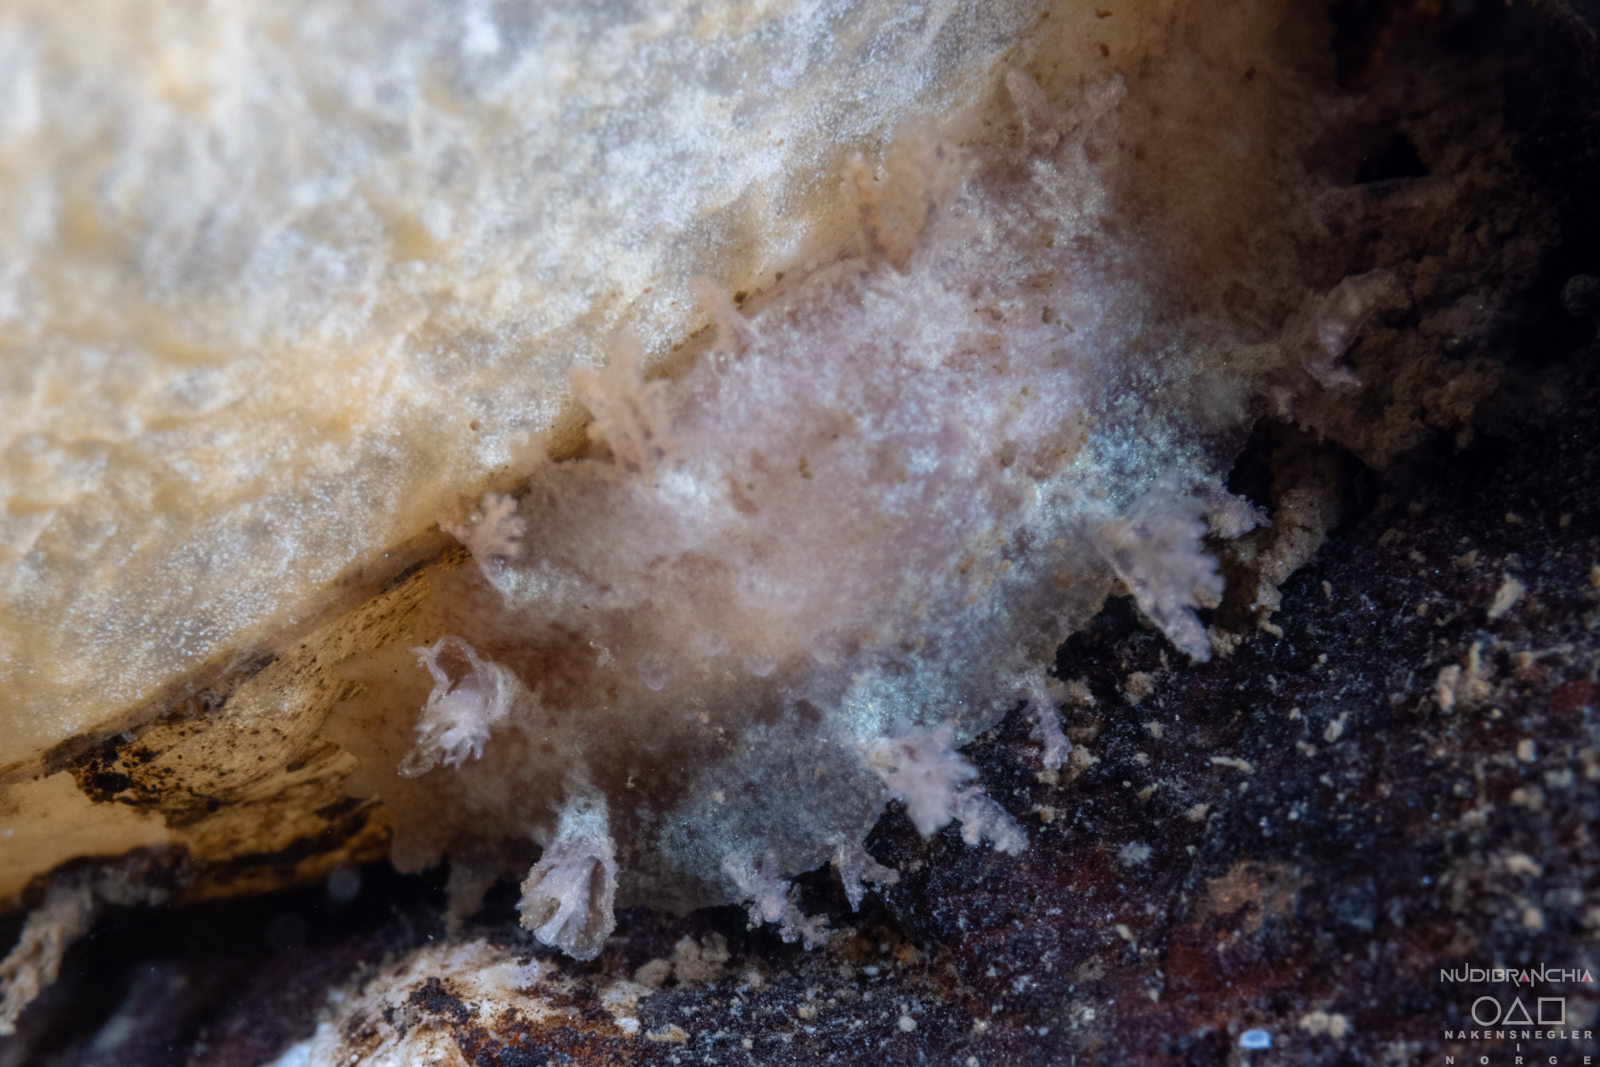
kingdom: Animalia
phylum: Mollusca
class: Gastropoda
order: Nudibranchia
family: Tritoniidae
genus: Duvaucelia
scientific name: Duvaucelia plebeia
